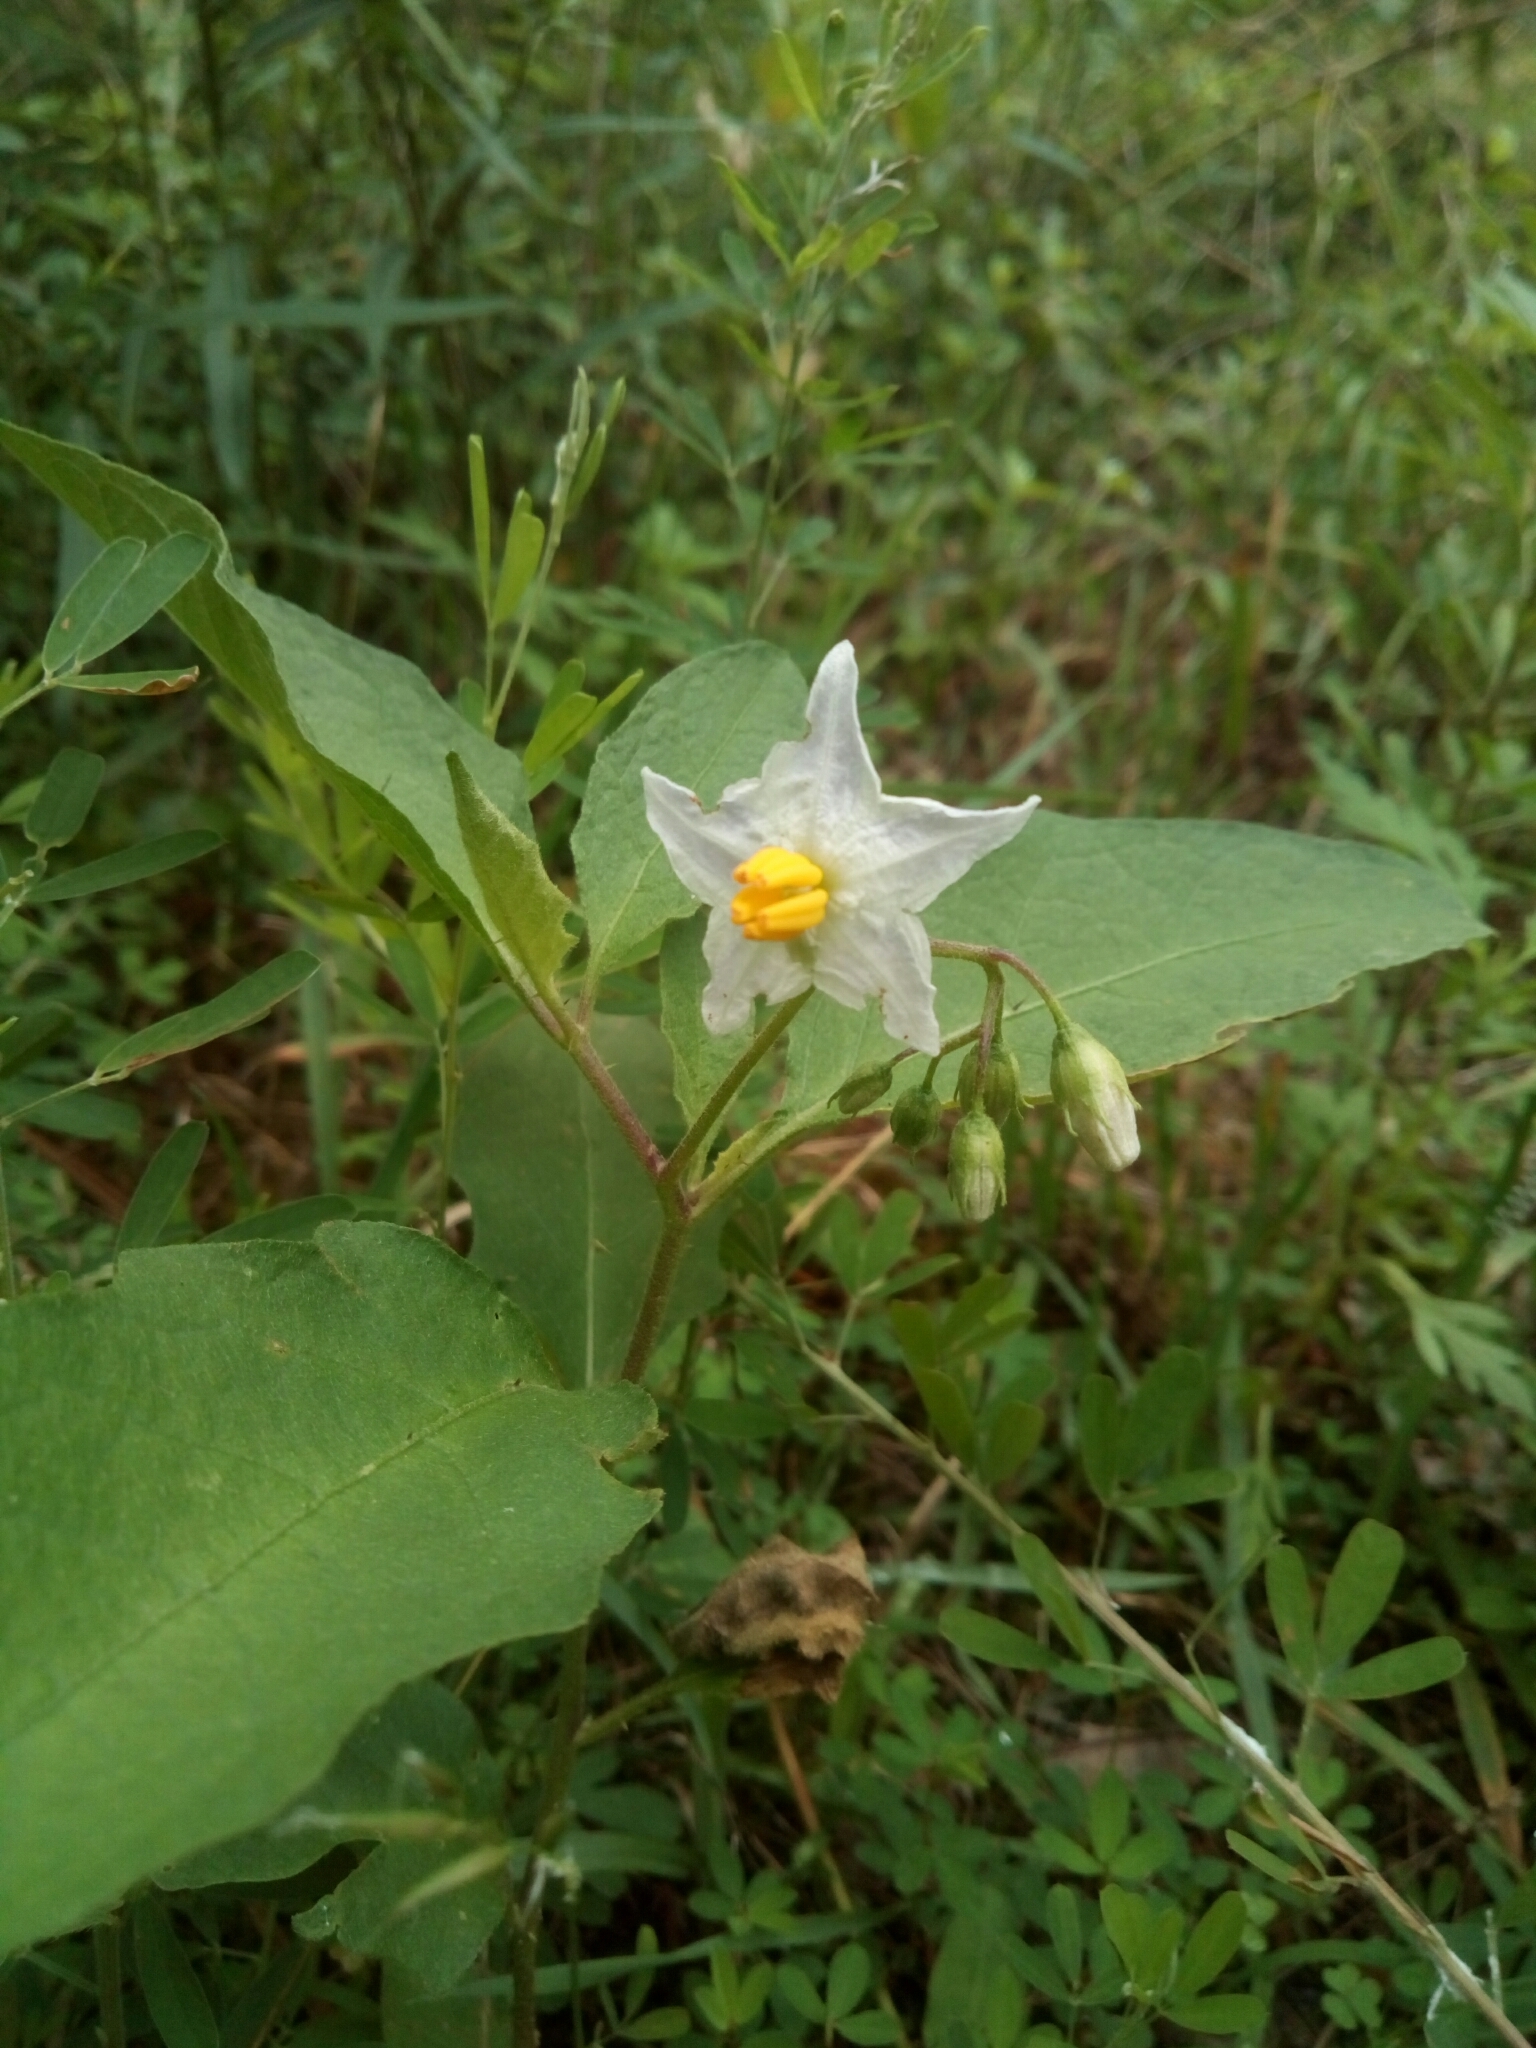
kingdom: Plantae
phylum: Tracheophyta
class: Magnoliopsida
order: Solanales
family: Solanaceae
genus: Solanum
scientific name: Solanum carolinense
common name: Horse-nettle
